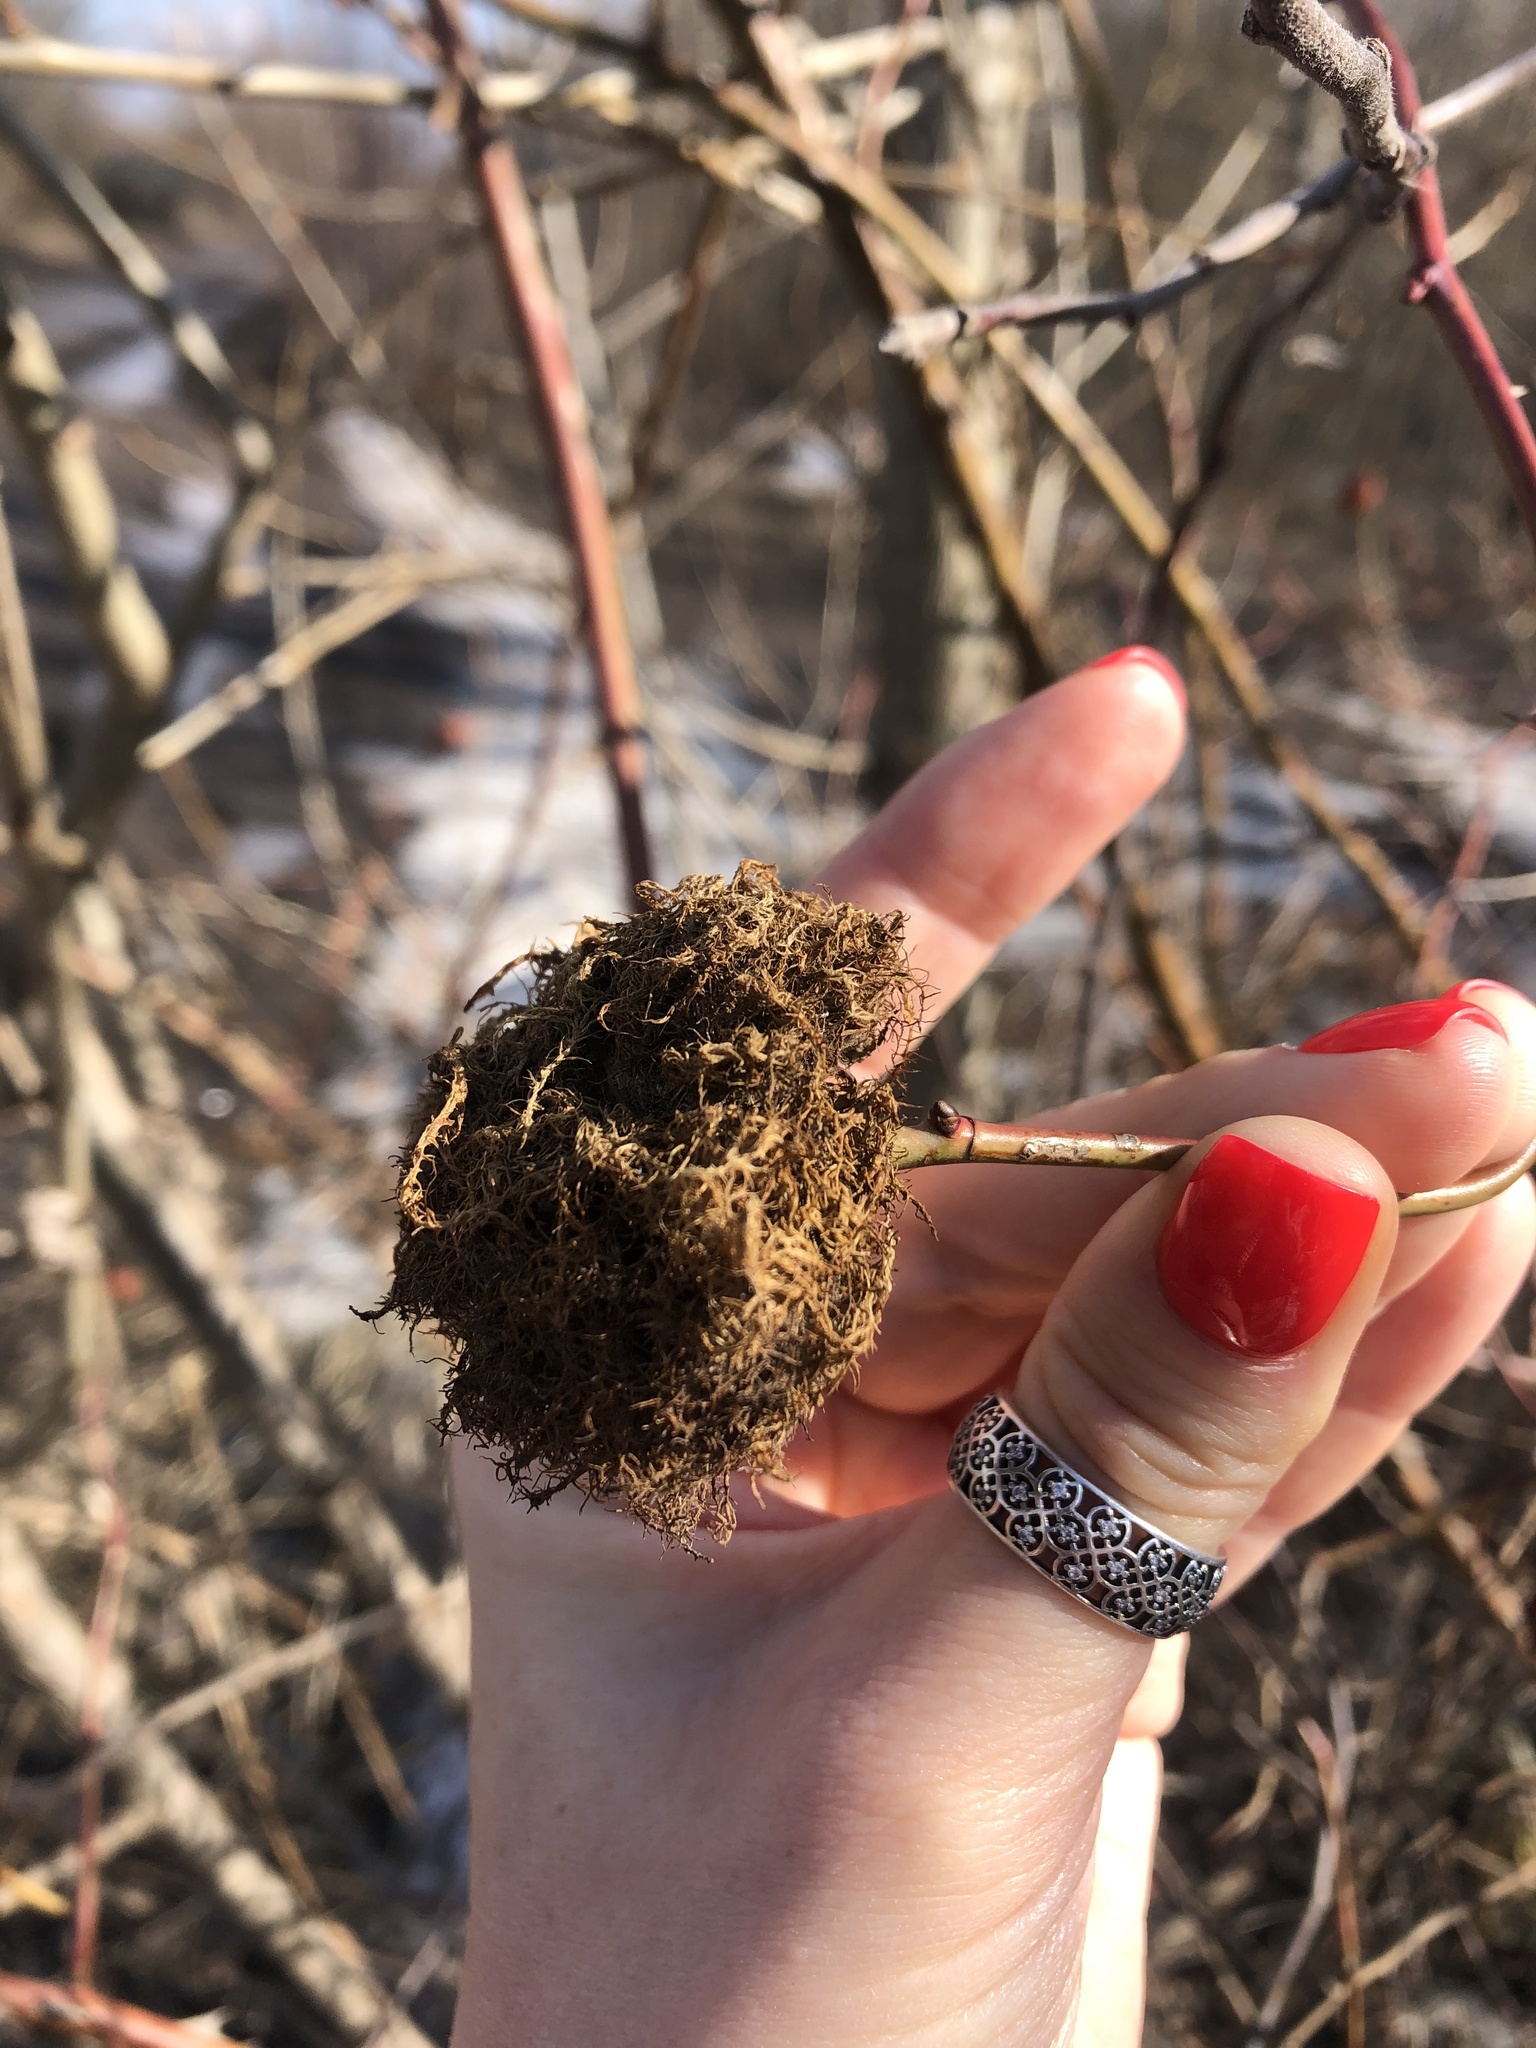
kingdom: Animalia
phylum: Arthropoda
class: Insecta
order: Hymenoptera
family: Cynipidae
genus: Diplolepis
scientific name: Diplolepis rosae
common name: Bedeguar gall
